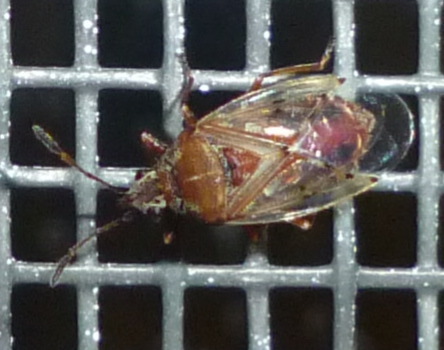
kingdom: Animalia
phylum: Arthropoda
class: Insecta
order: Hemiptera
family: Lygaeidae
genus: Kleidocerys
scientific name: Kleidocerys resedae
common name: Birch catkin bug
